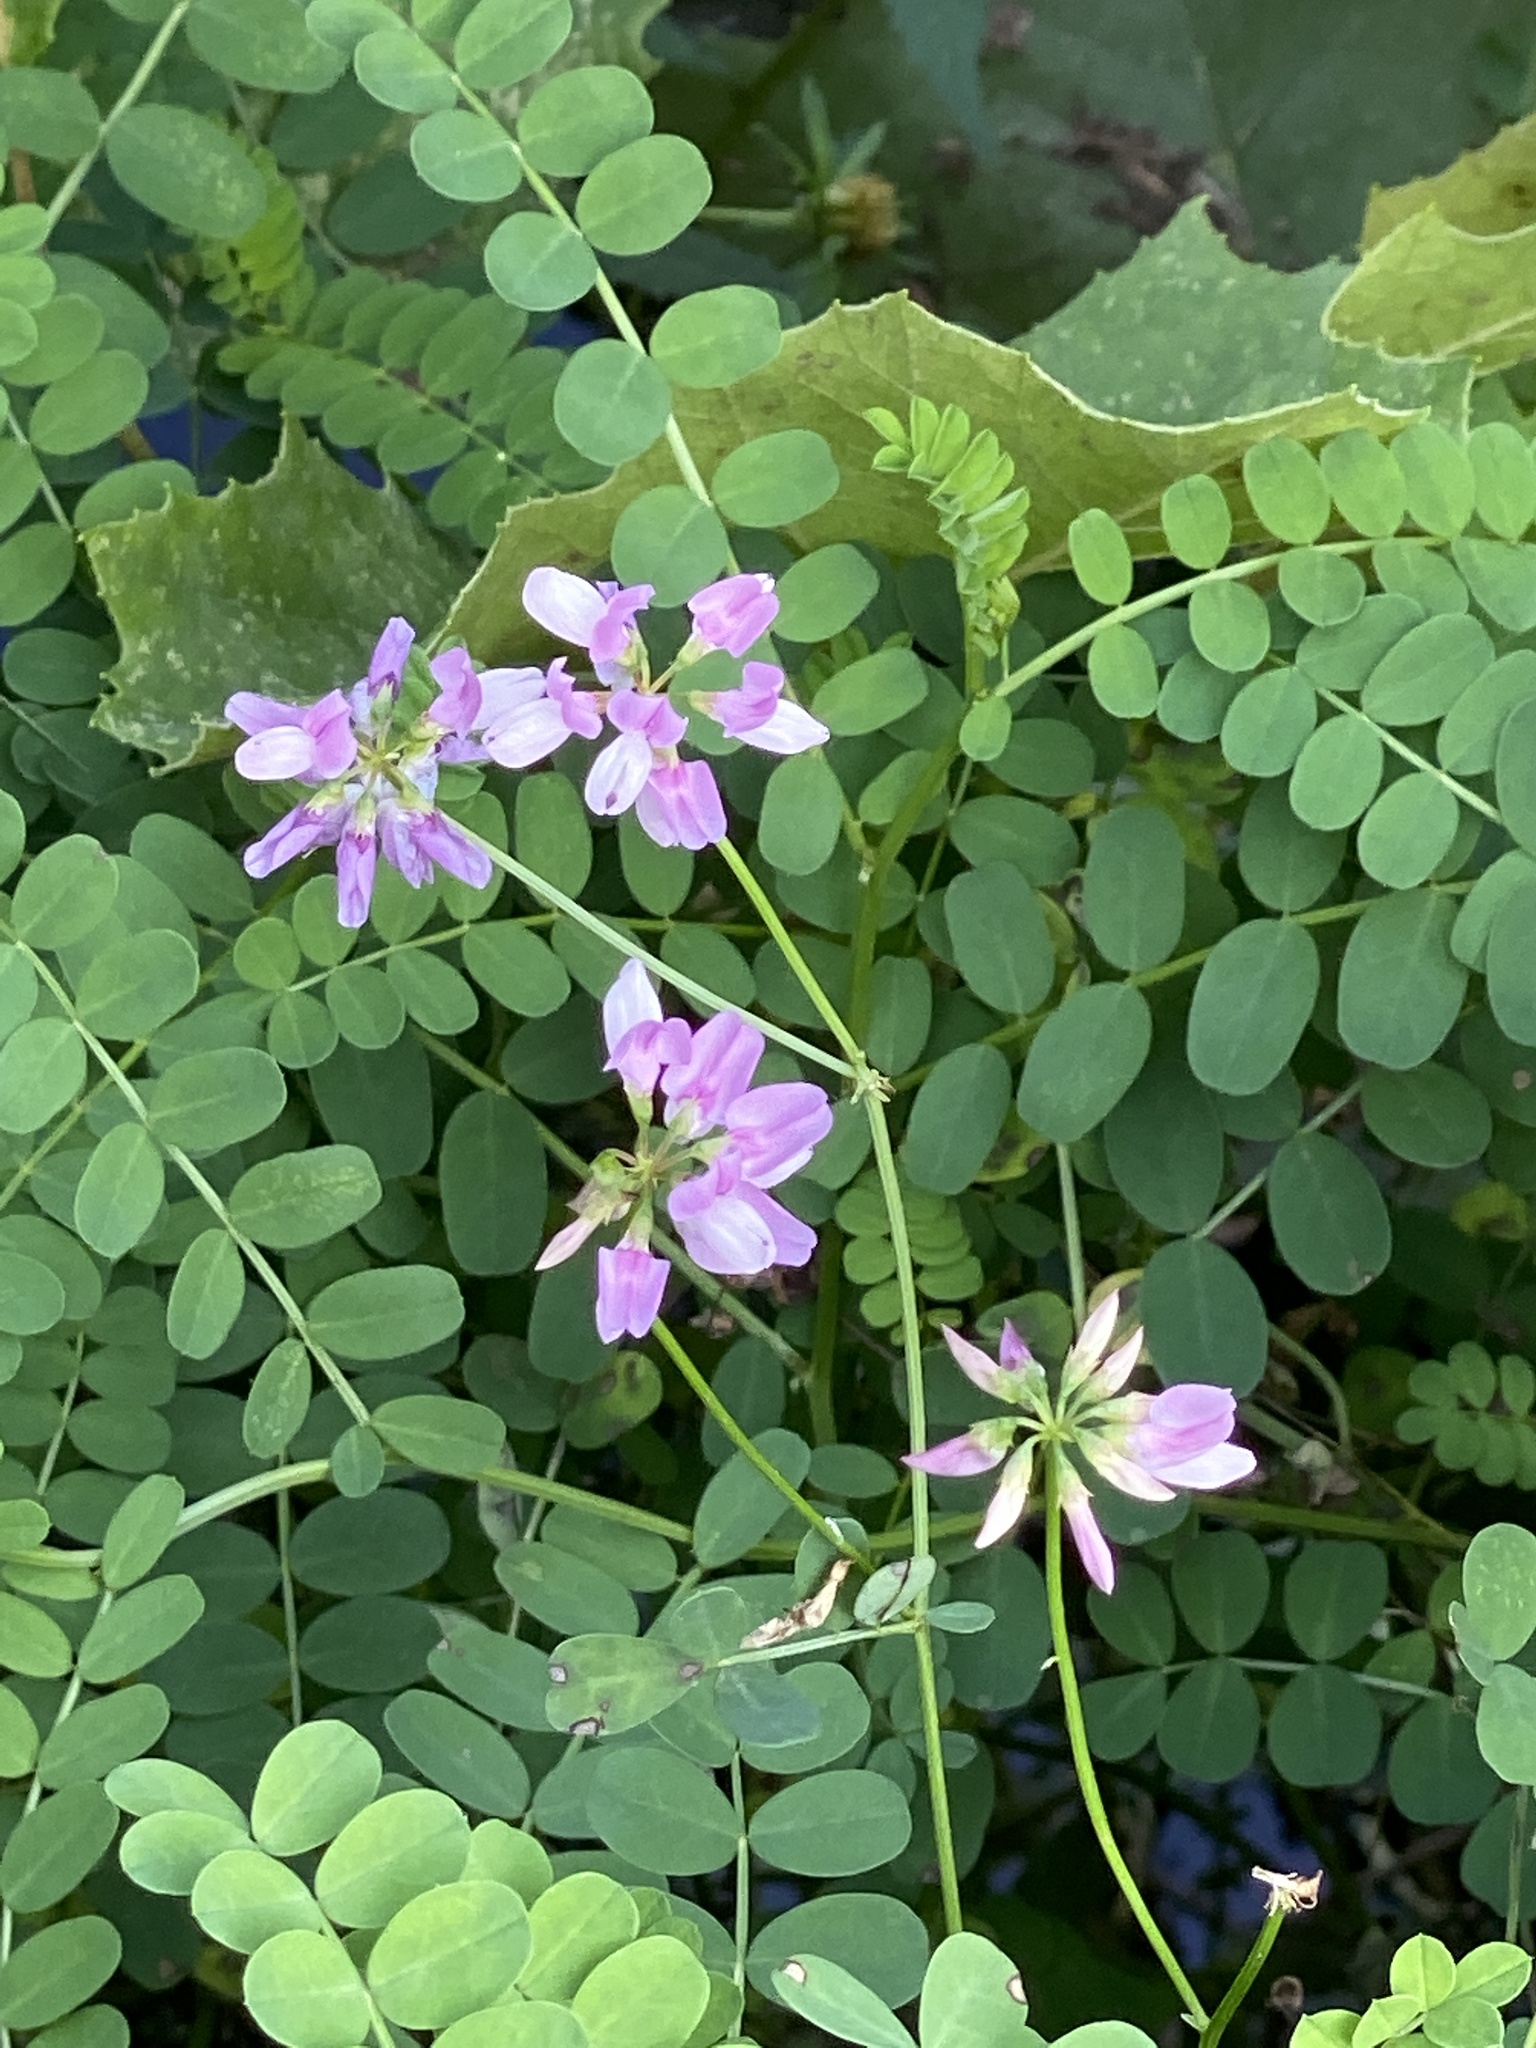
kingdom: Plantae
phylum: Tracheophyta
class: Magnoliopsida
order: Fabales
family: Fabaceae
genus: Coronilla
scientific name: Coronilla varia
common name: Crownvetch
